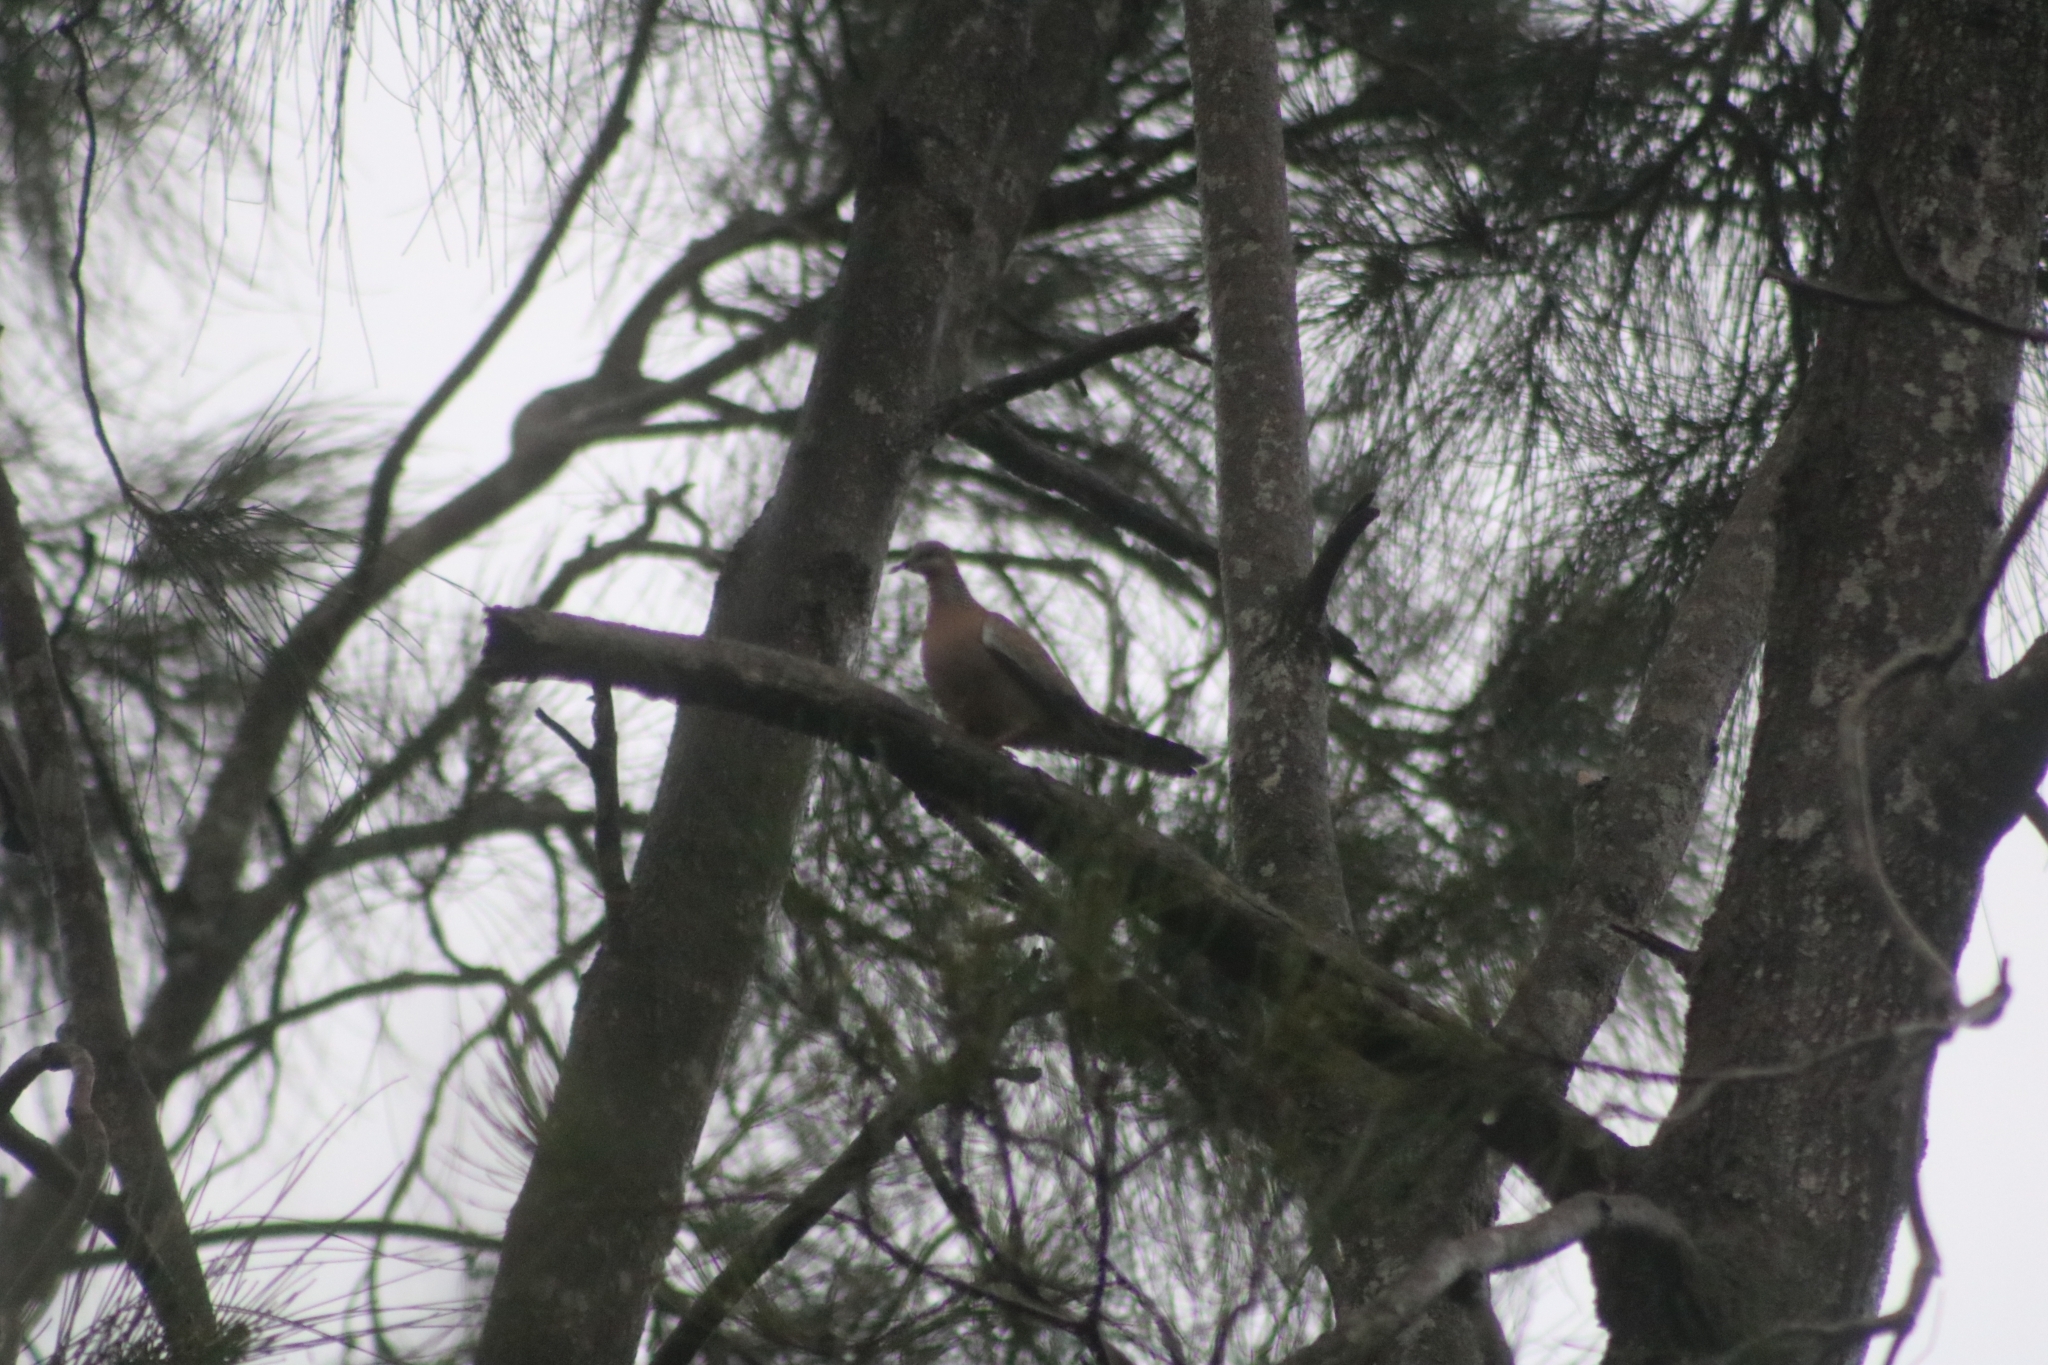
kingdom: Animalia
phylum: Chordata
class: Aves
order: Columbiformes
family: Columbidae
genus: Spilopelia
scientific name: Spilopelia chinensis
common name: Spotted dove
